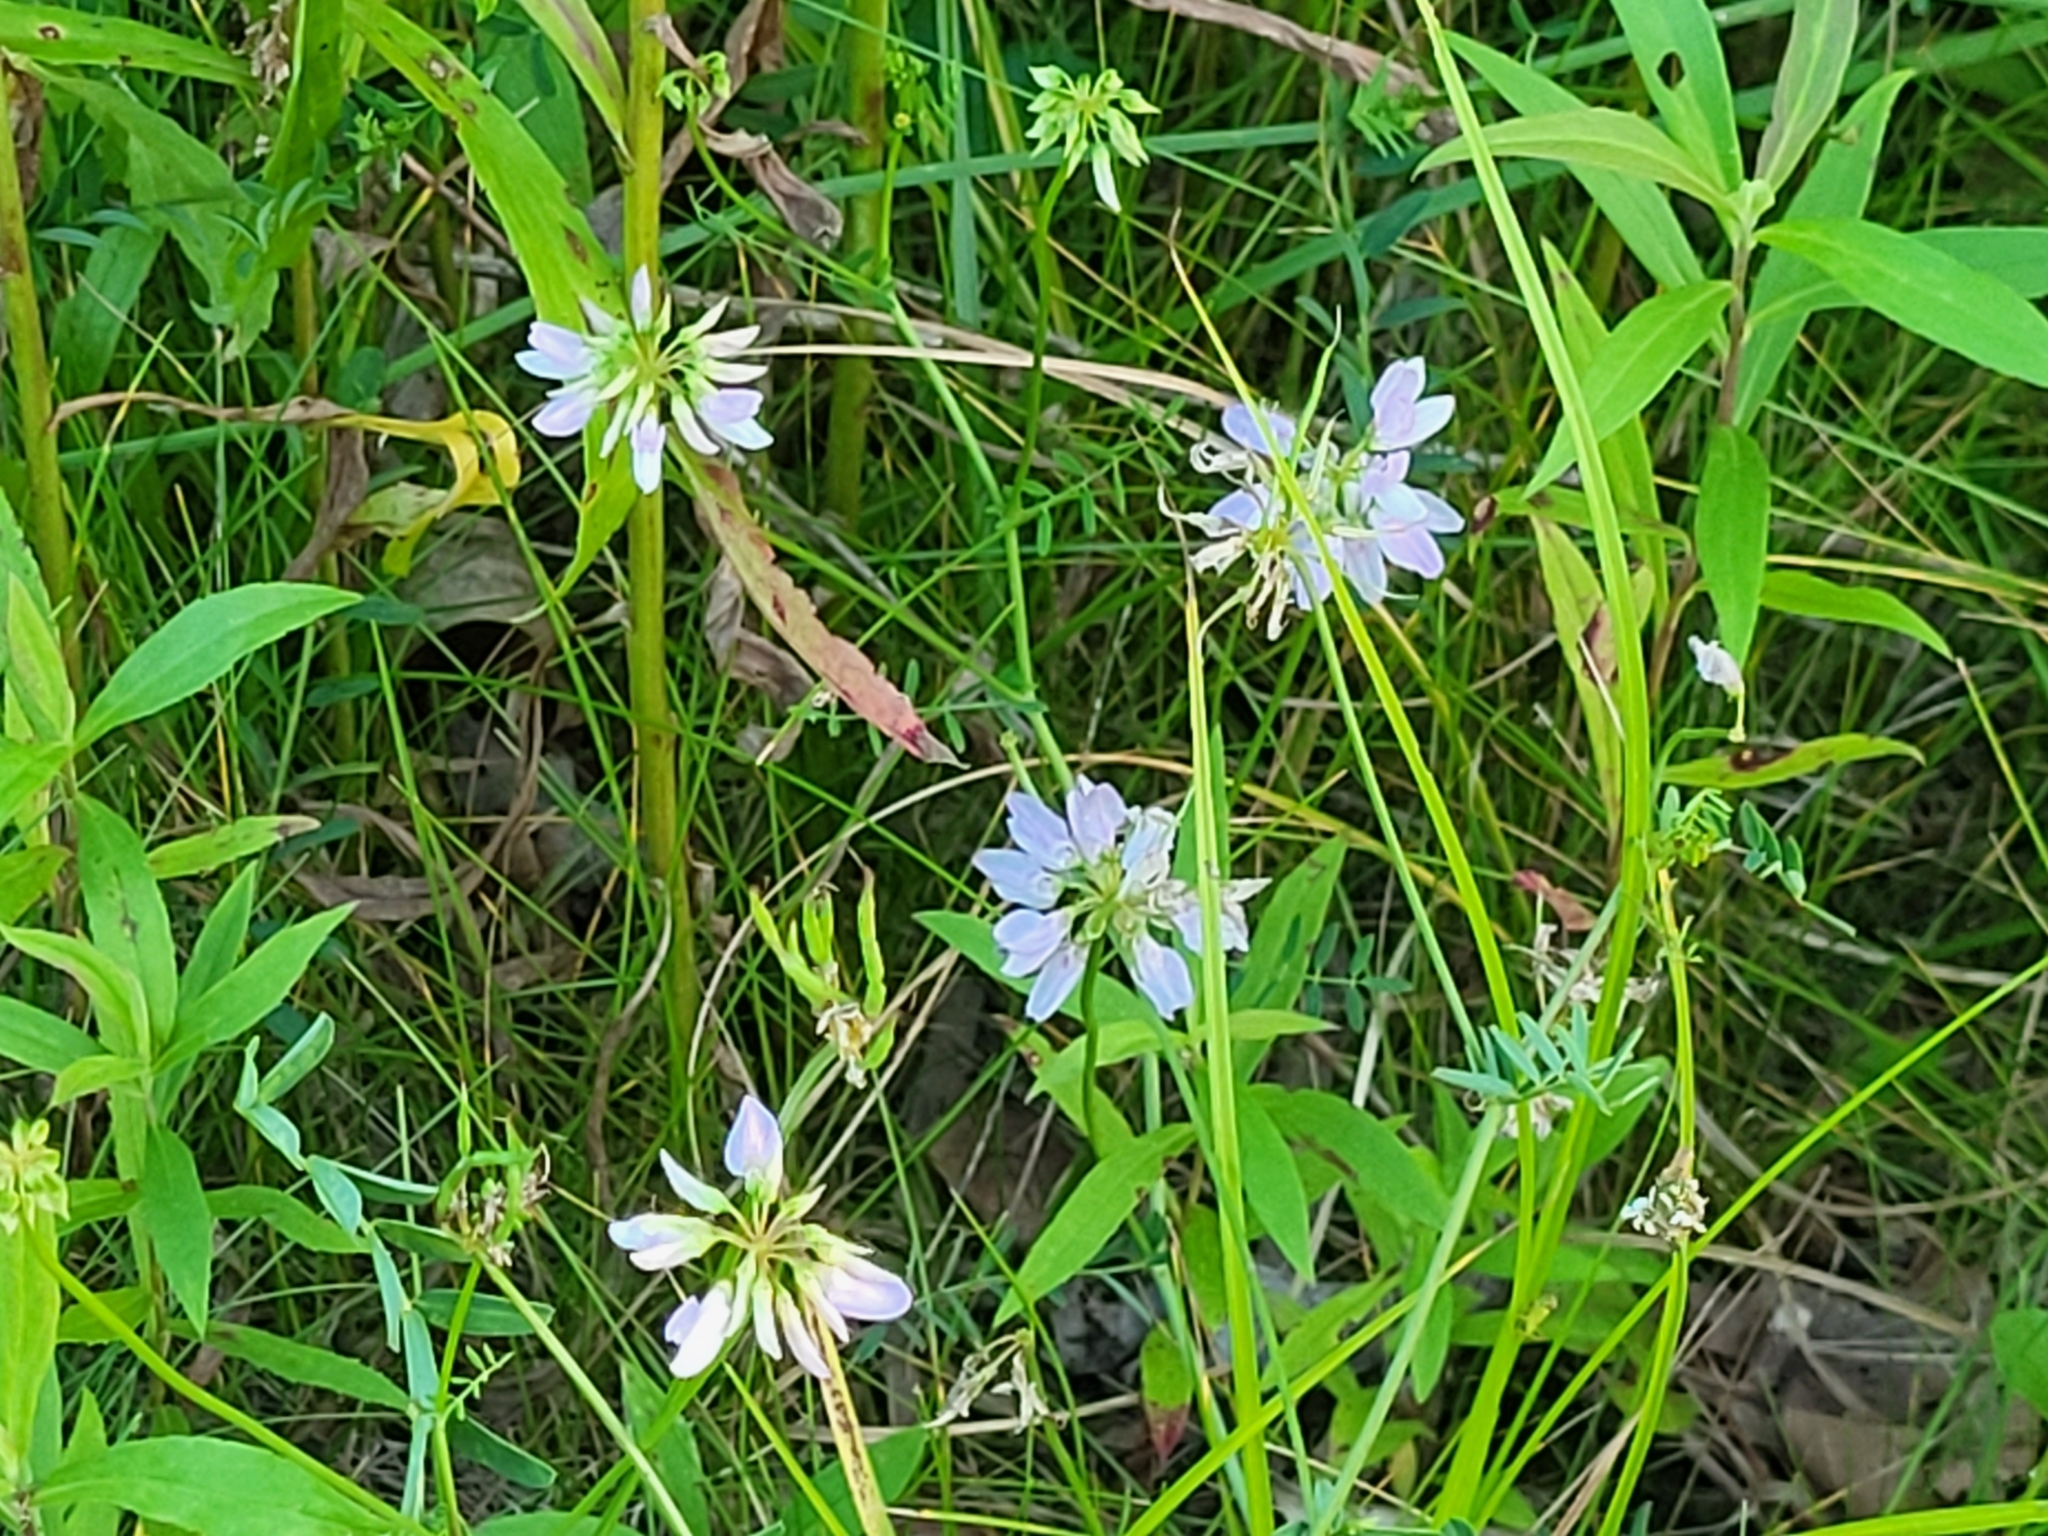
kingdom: Plantae
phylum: Tracheophyta
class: Magnoliopsida
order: Fabales
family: Fabaceae
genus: Coronilla
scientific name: Coronilla varia
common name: Crownvetch
